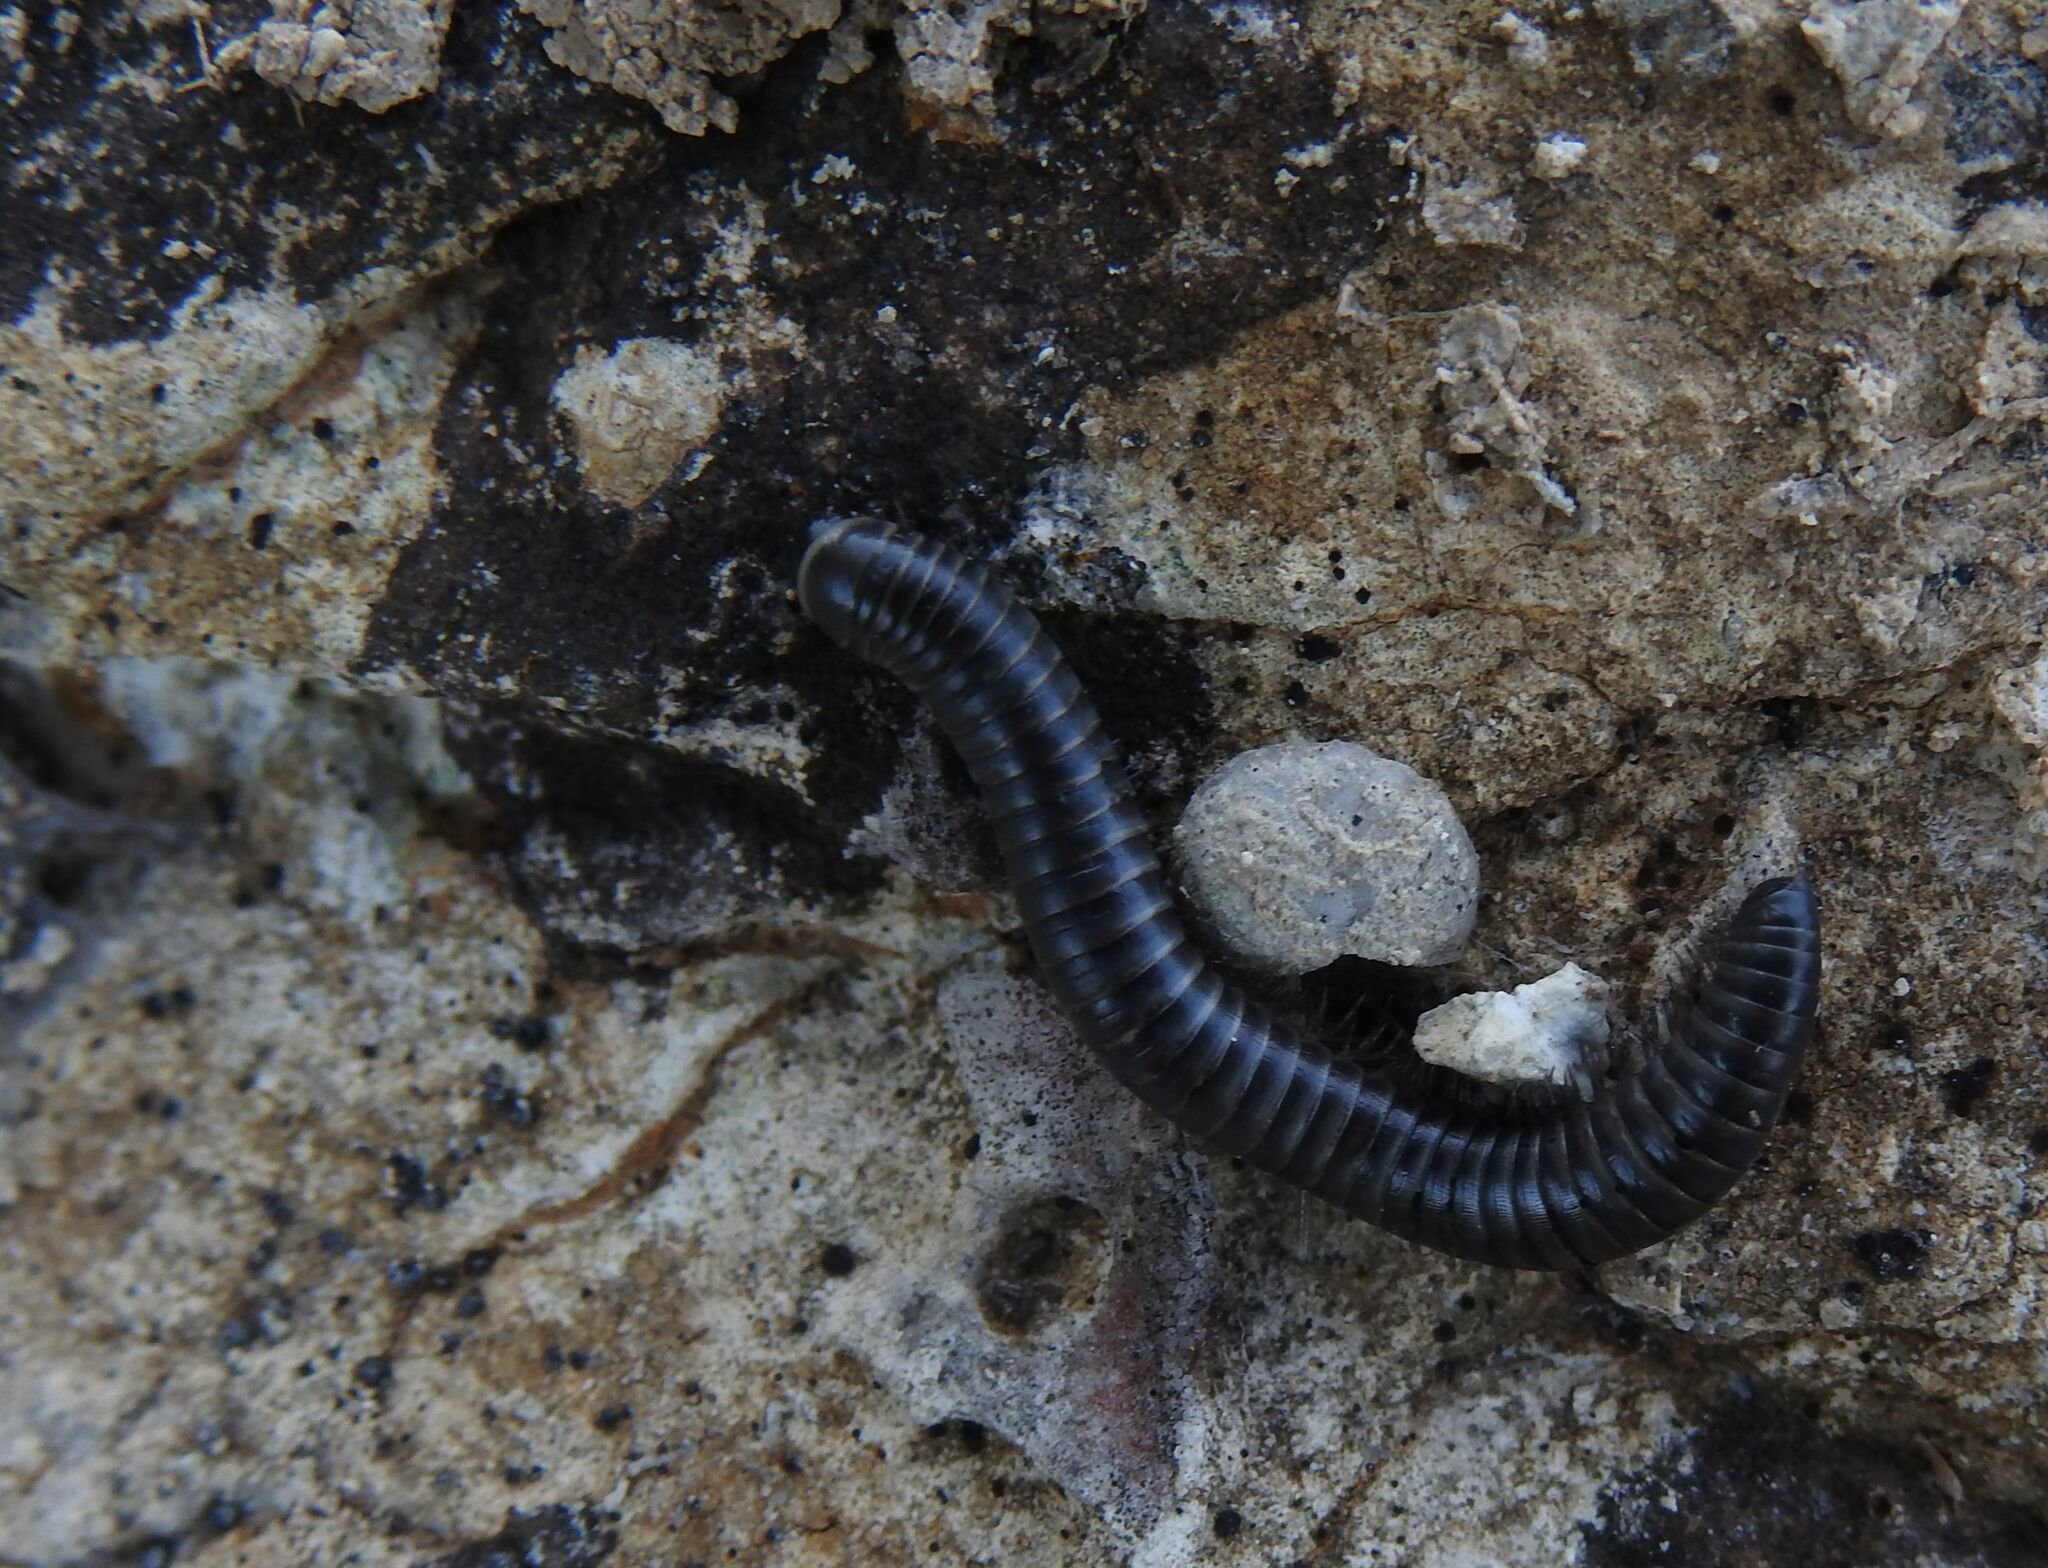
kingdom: Animalia
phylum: Arthropoda
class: Diplopoda
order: Julida
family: Julidae
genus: Ommatoiulus
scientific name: Ommatoiulus rutilans
